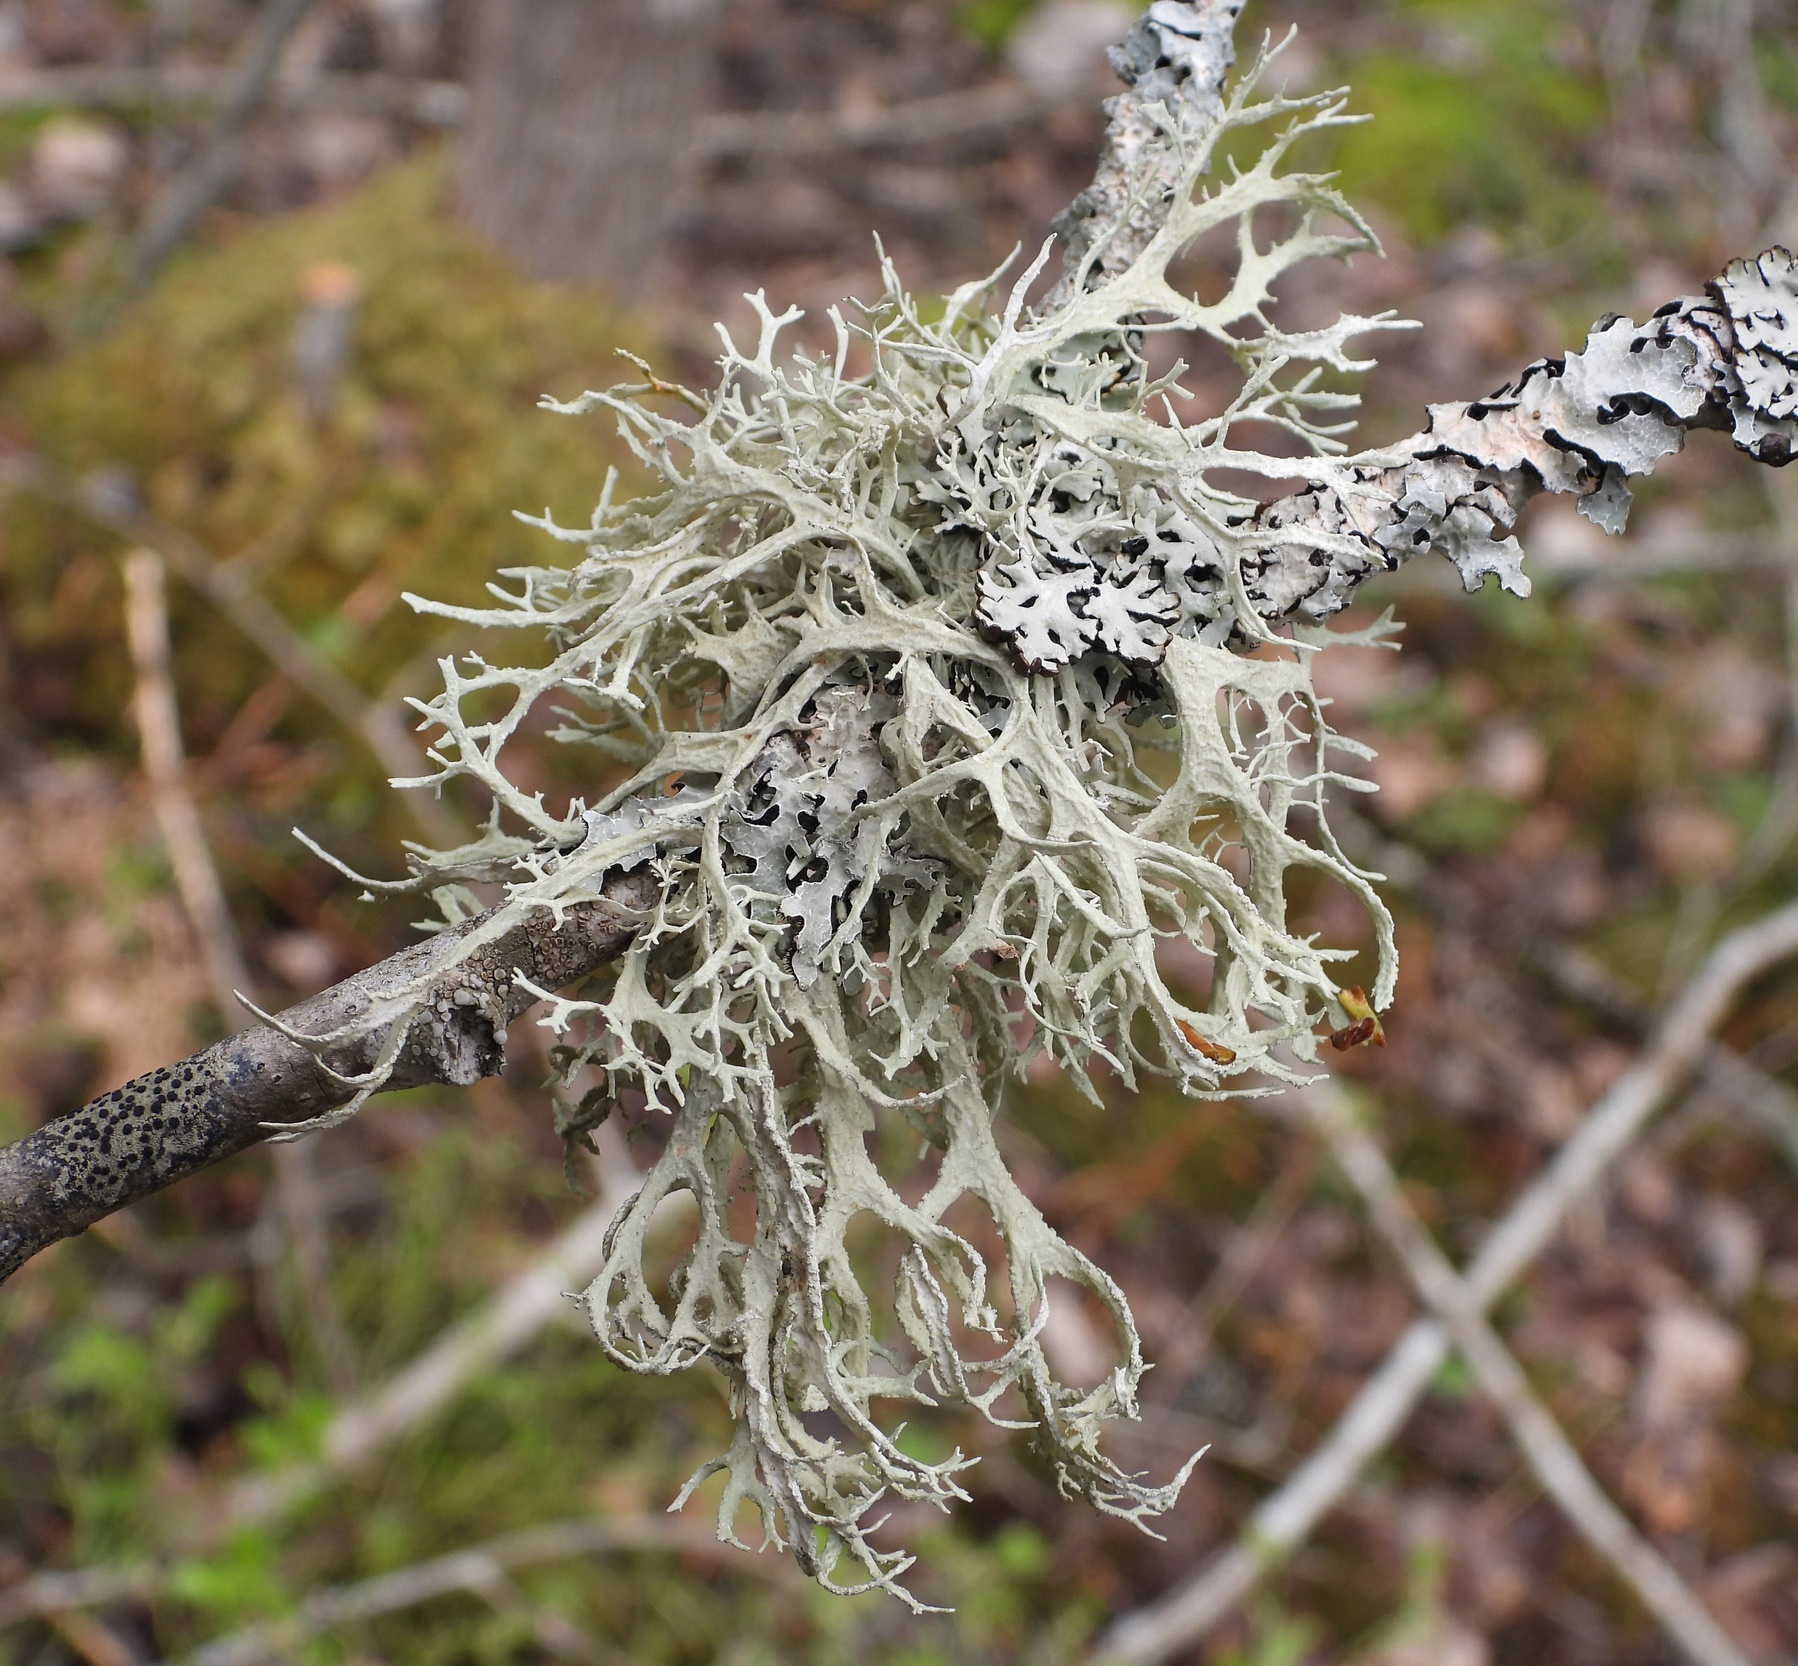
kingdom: Fungi
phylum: Ascomycota
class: Lecanoromycetes
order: Lecanorales
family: Parmeliaceae
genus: Evernia
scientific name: Evernia prunastri
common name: Oak moss
